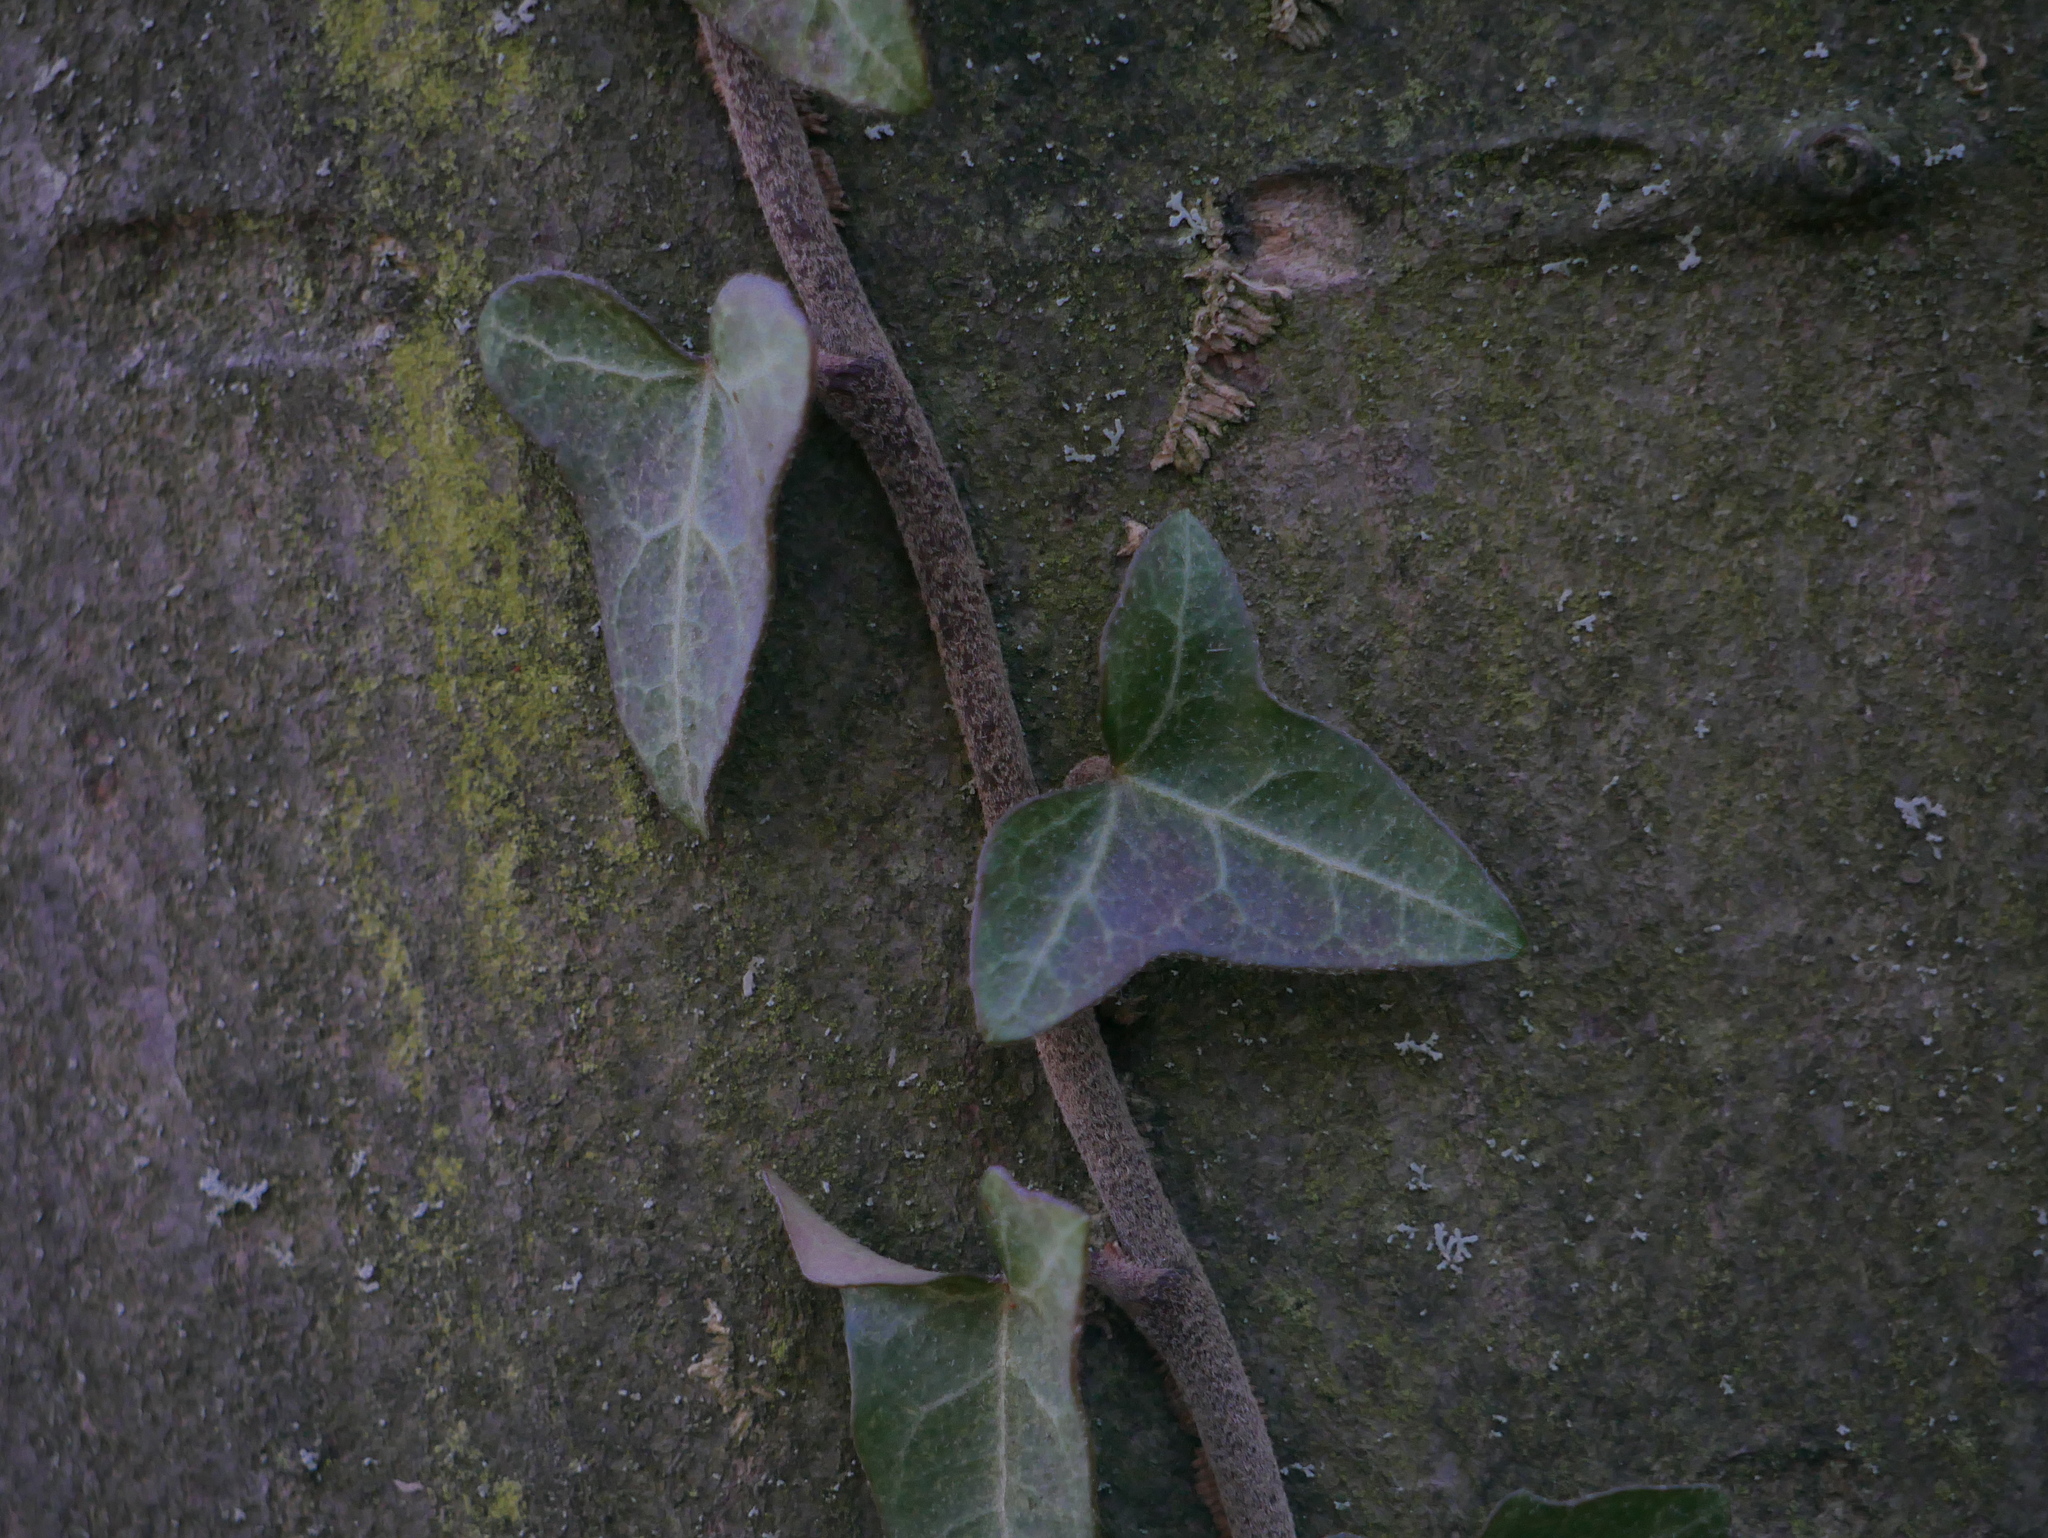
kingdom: Plantae
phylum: Tracheophyta
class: Magnoliopsida
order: Apiales
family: Araliaceae
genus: Hedera
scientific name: Hedera helix
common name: Ivy
